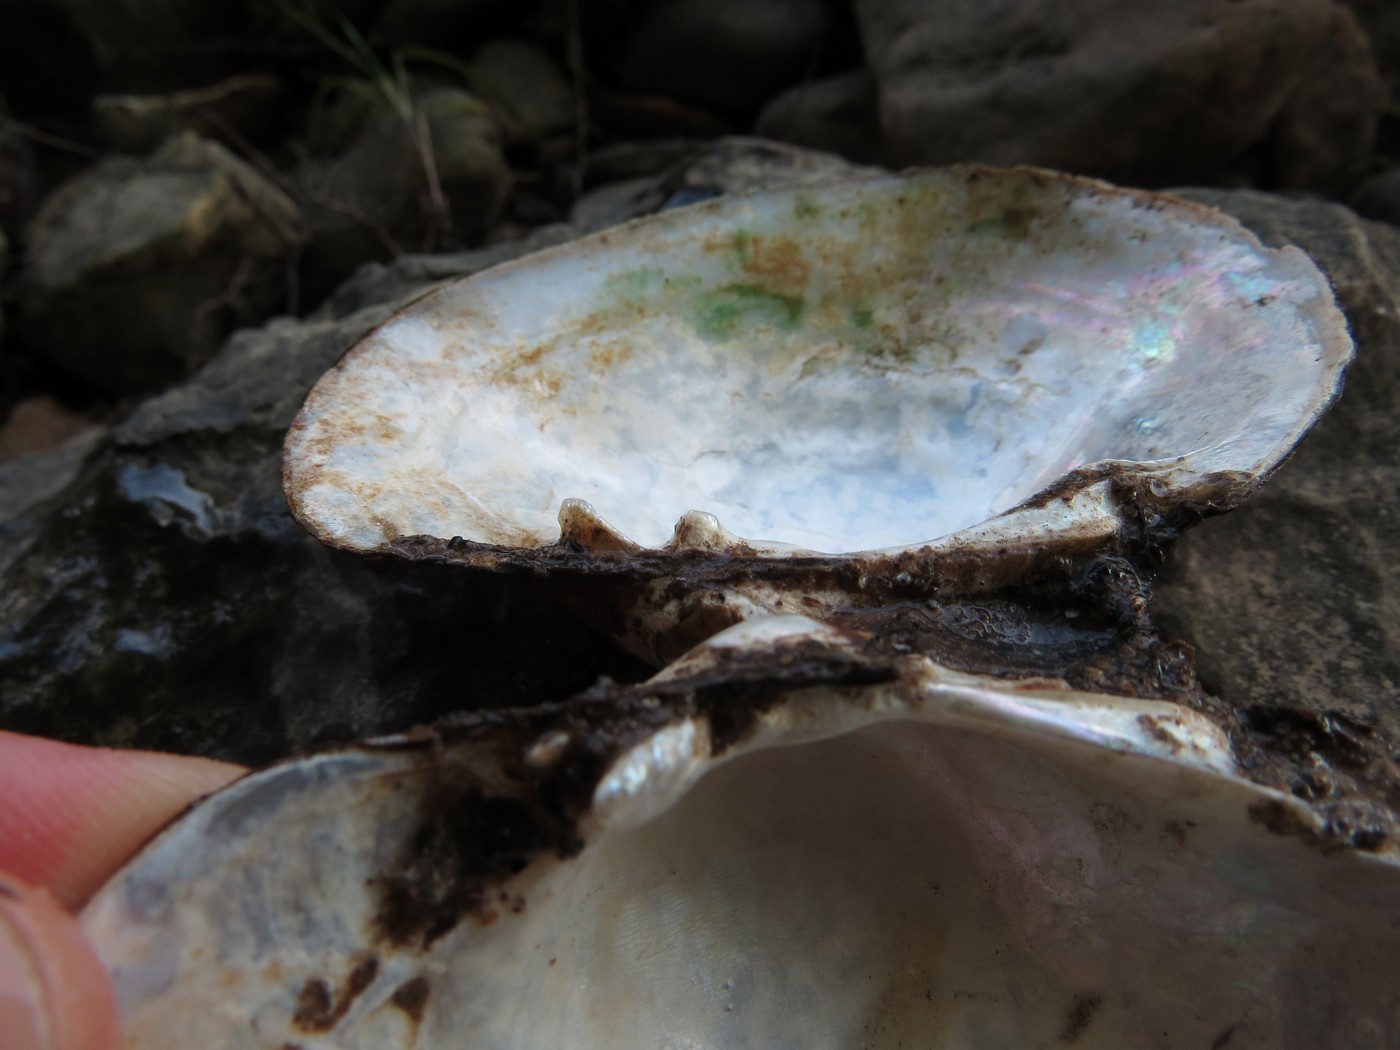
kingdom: Animalia
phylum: Mollusca
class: Bivalvia
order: Unionida
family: Unionidae
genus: Lampsilis
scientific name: Lampsilis cariosa
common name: Yellow lampmussel
